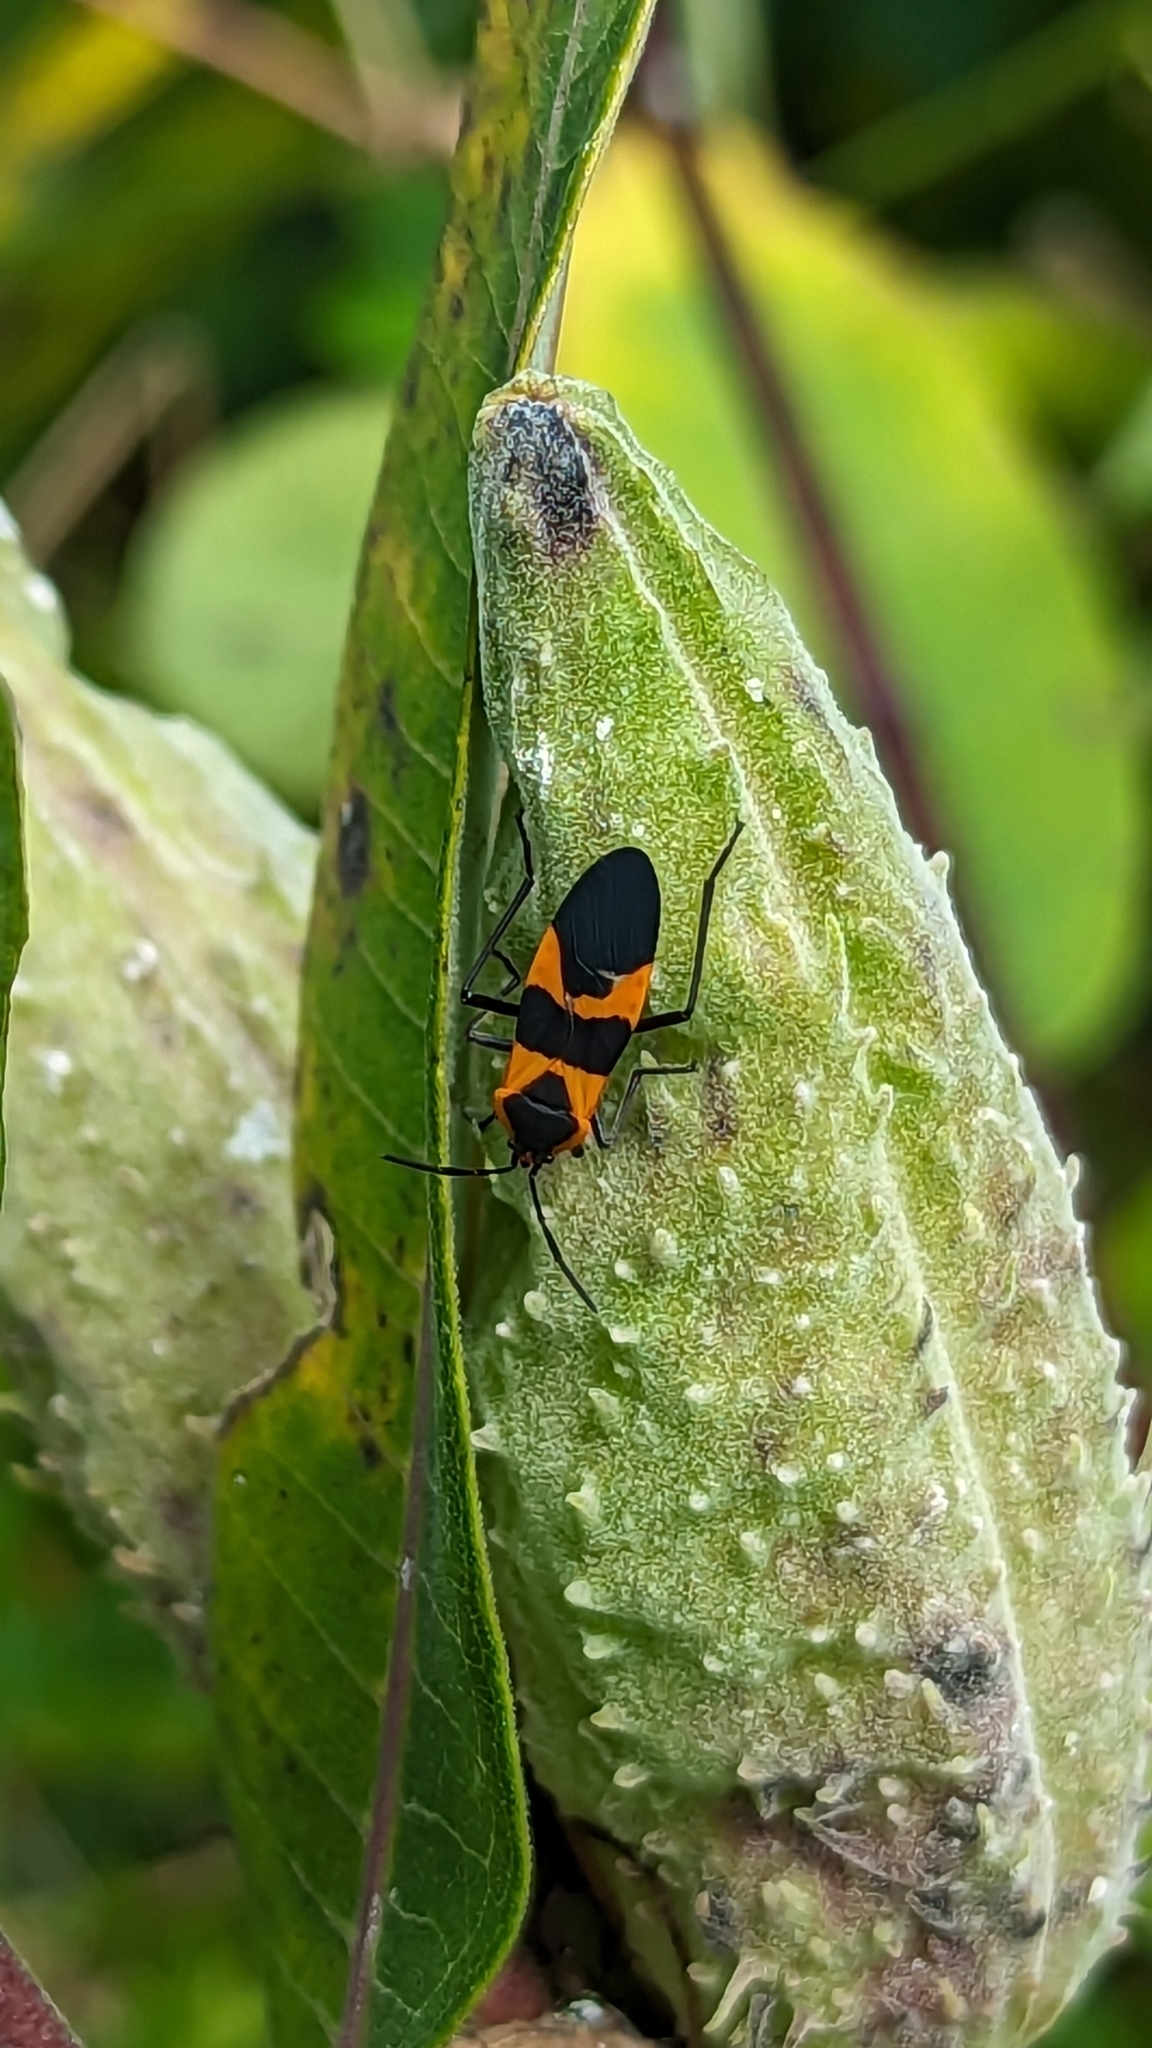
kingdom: Animalia
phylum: Arthropoda
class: Insecta
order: Hemiptera
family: Lygaeidae
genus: Oncopeltus
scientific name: Oncopeltus fasciatus
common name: Large milkweed bug
